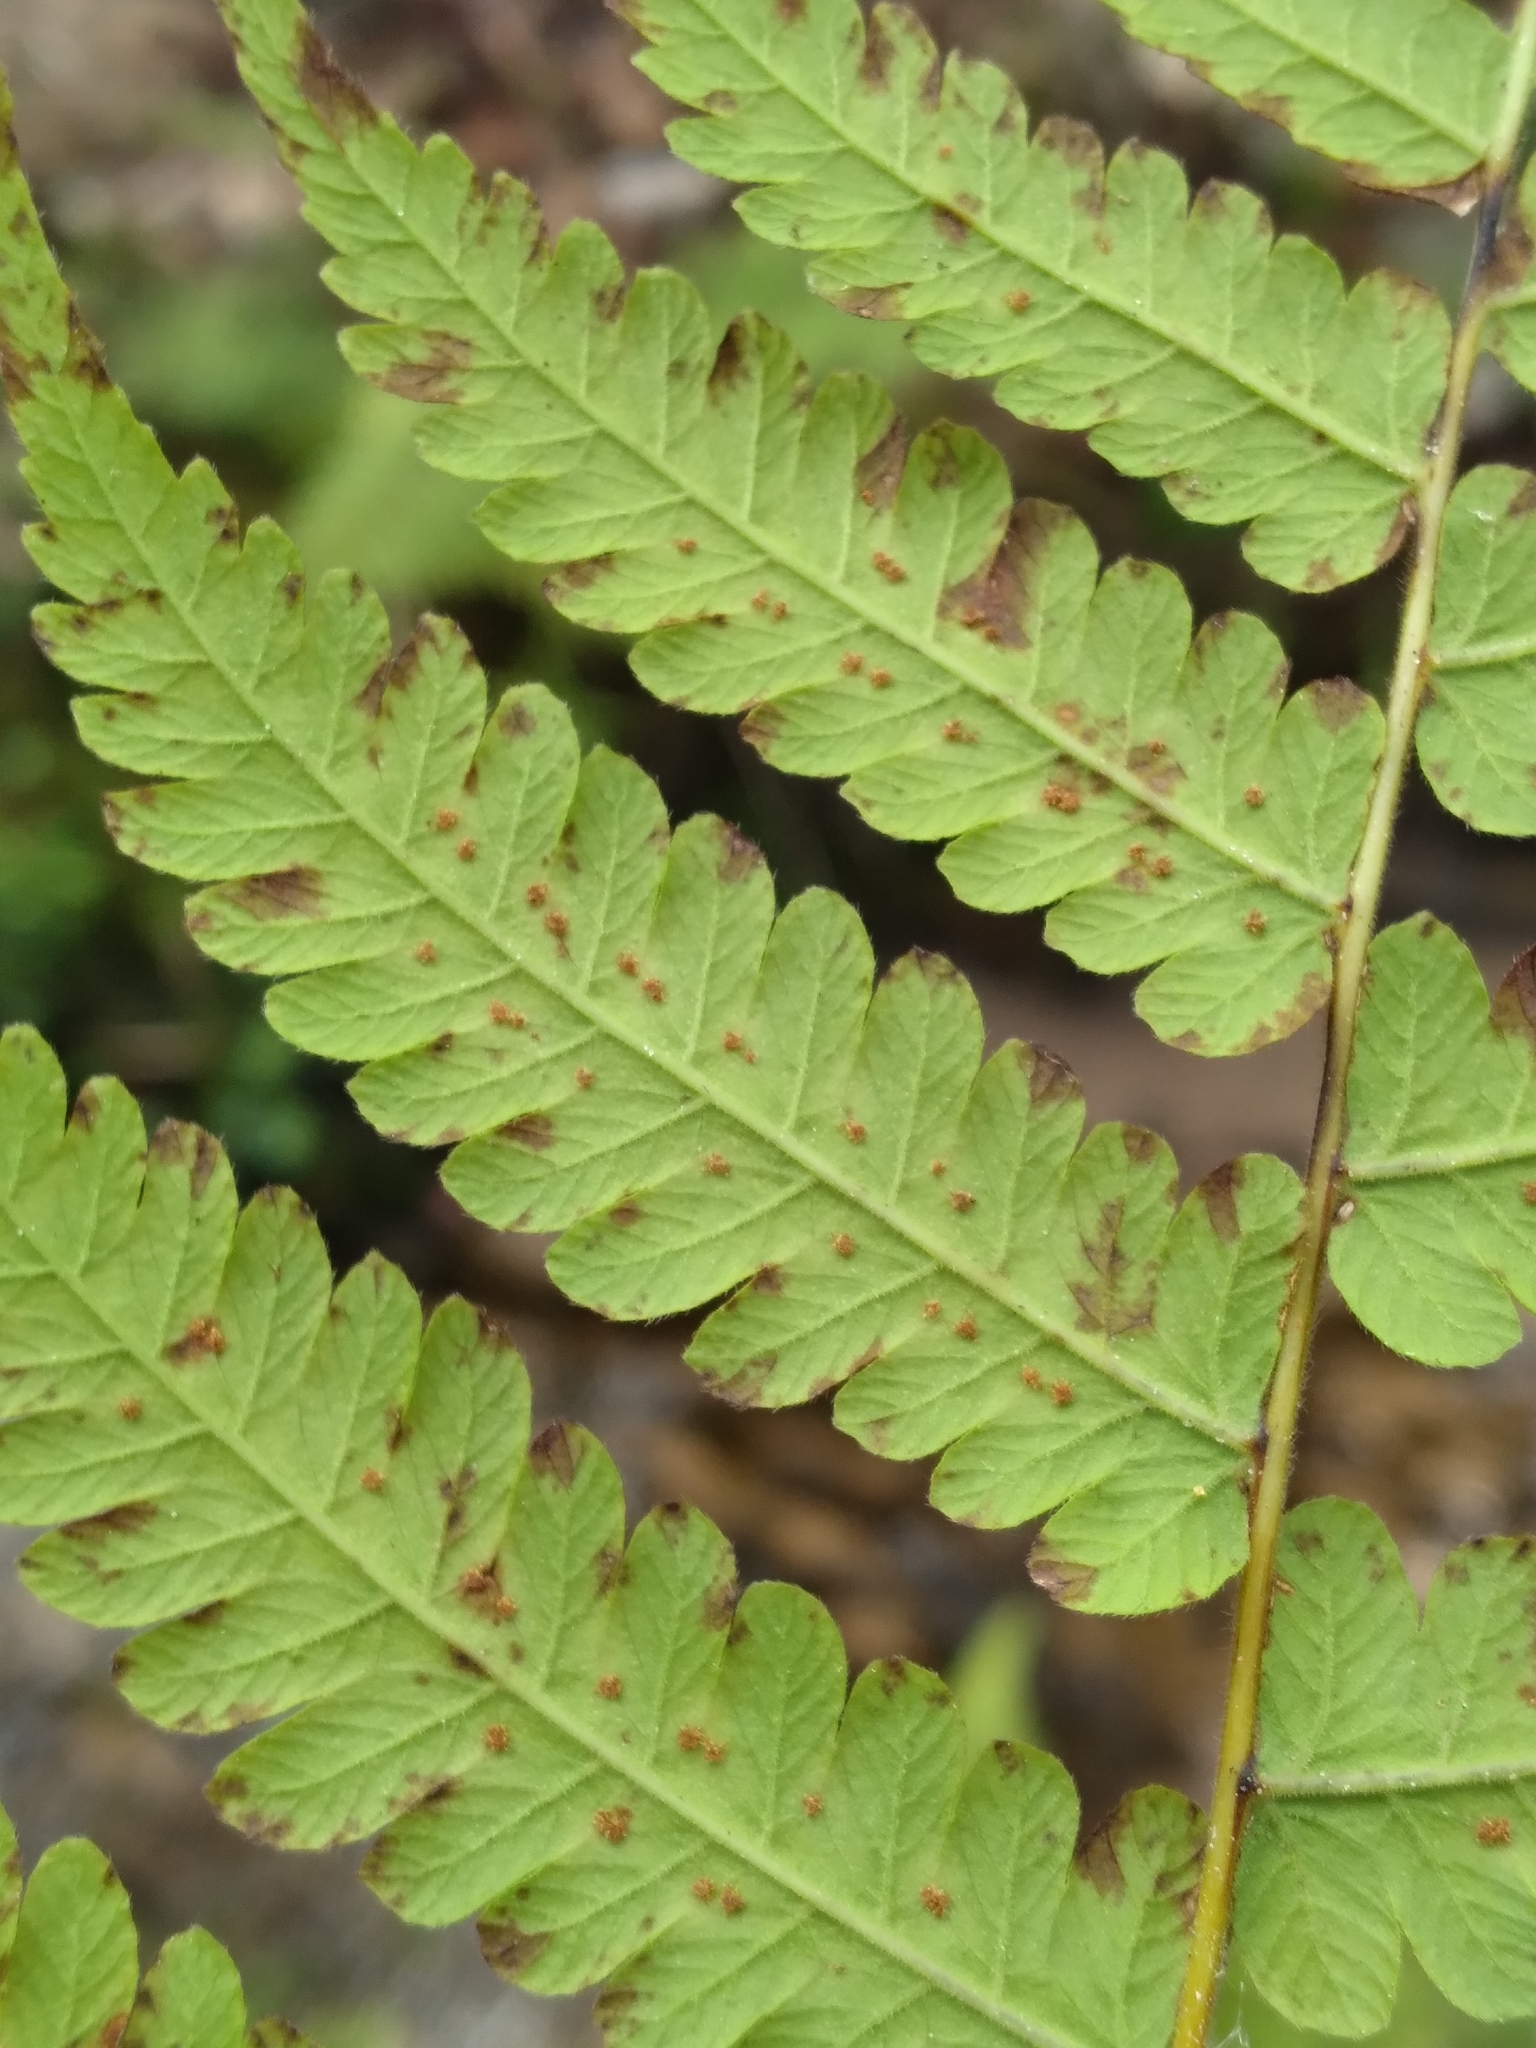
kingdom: Plantae
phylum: Tracheophyta
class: Polypodiopsida
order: Polypodiales
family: Thelypteridaceae
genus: Christella
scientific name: Christella dentata
